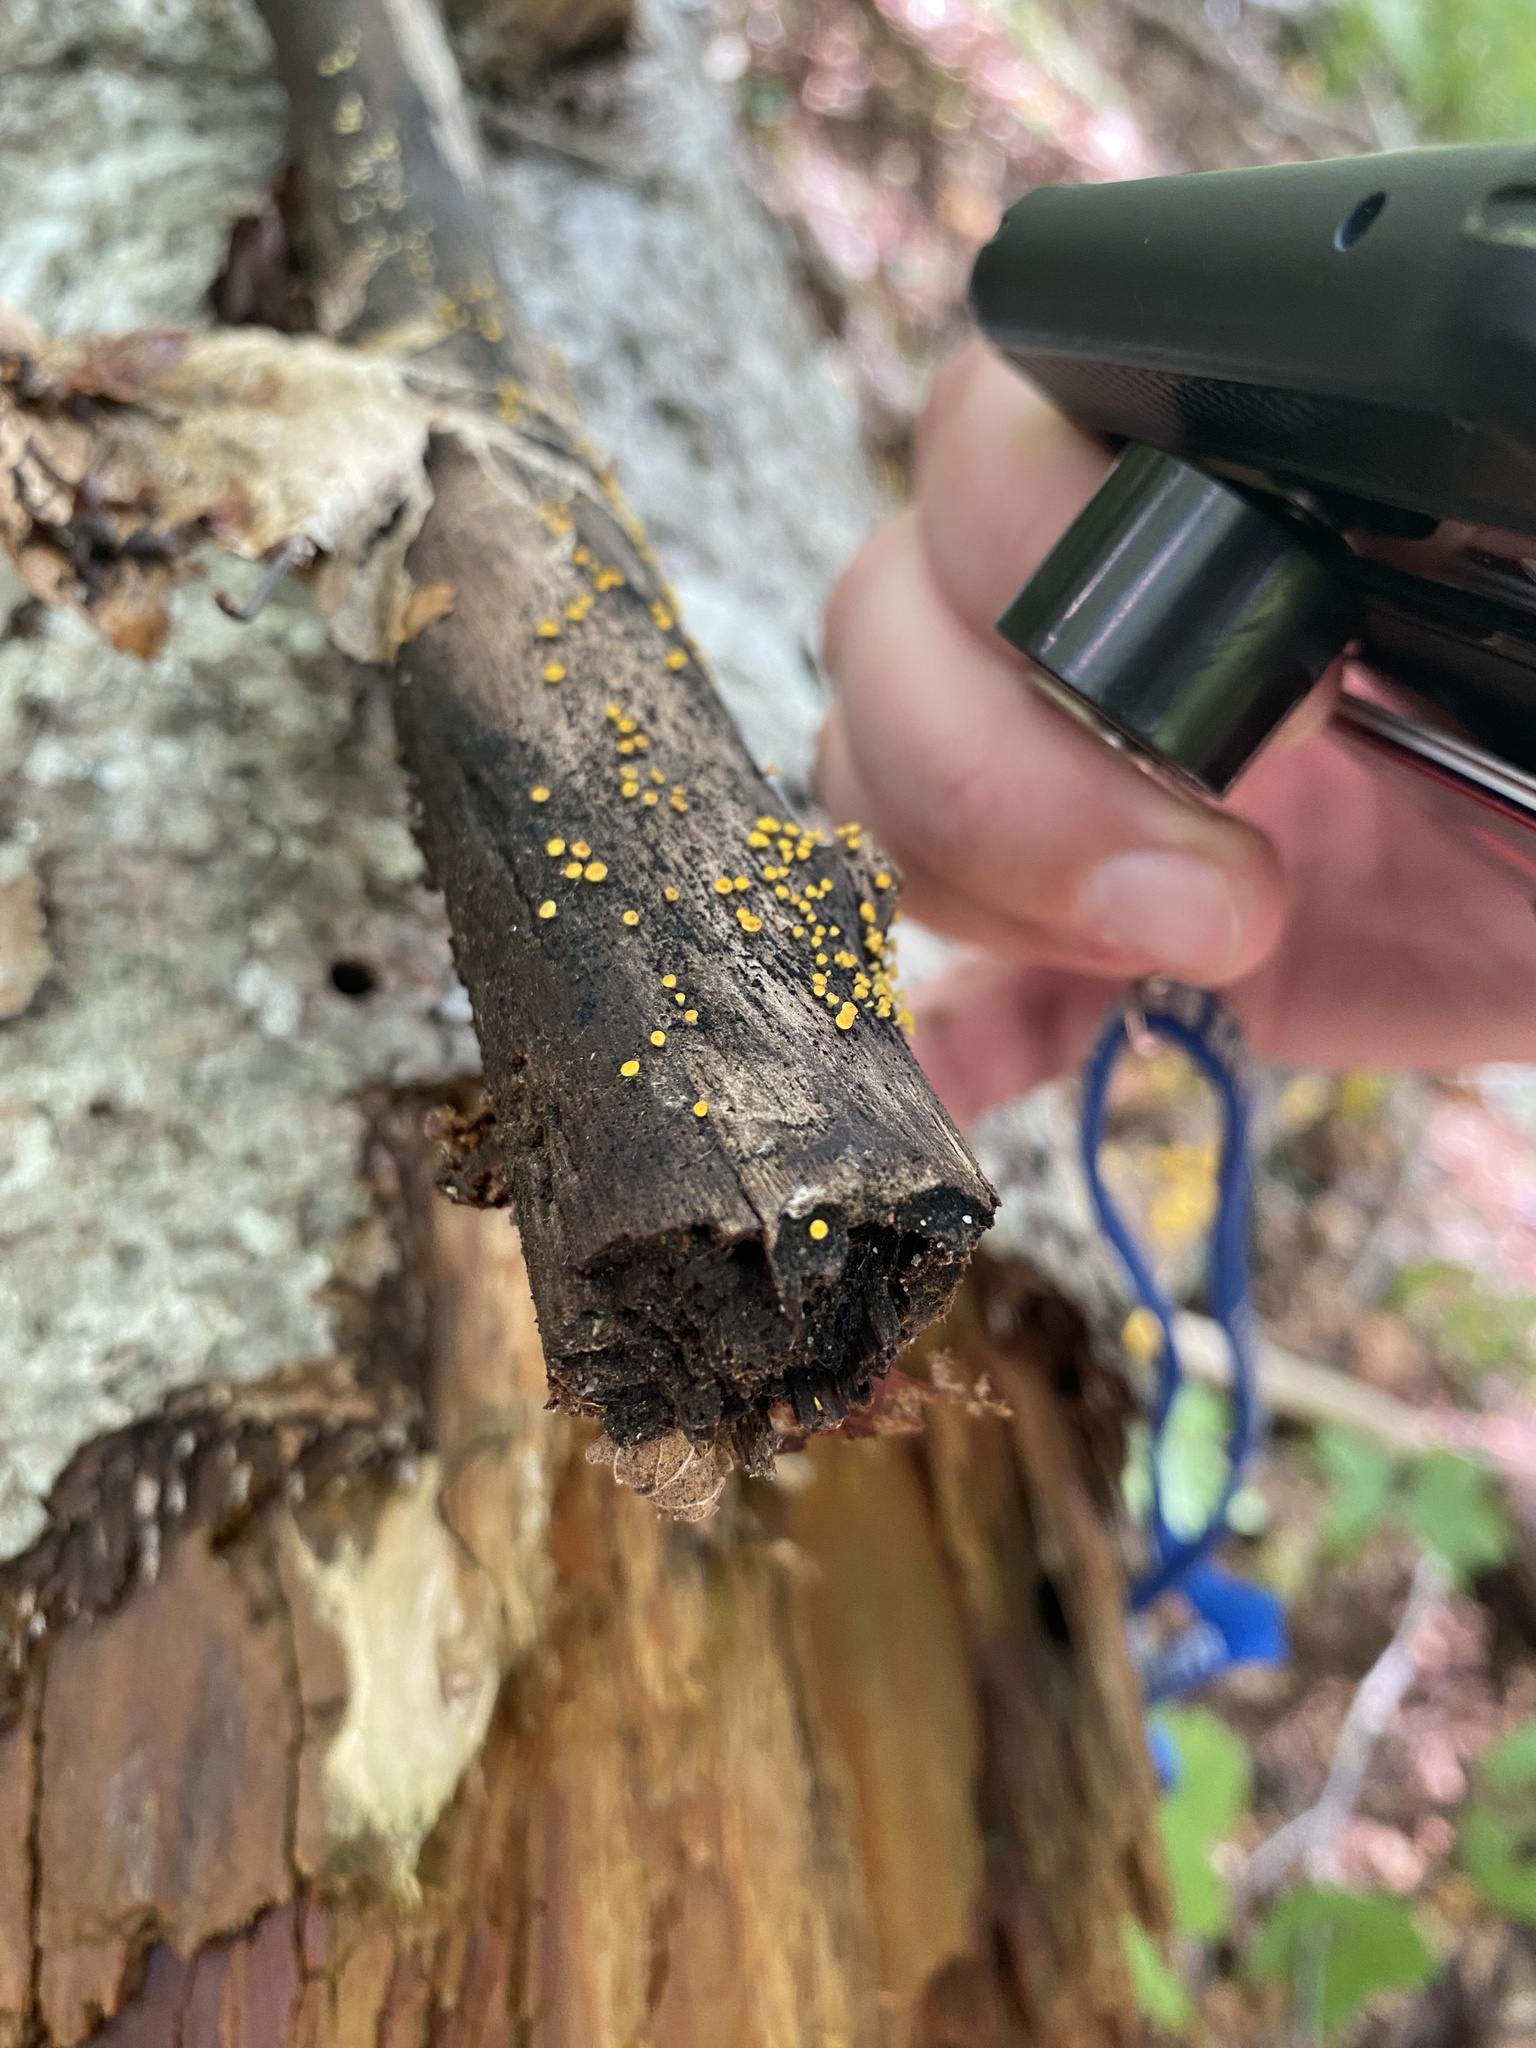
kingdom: Fungi
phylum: Ascomycota
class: Leotiomycetes
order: Helotiales
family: Pezizellaceae
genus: Calycina
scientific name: Calycina citrina
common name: Yellow fairy cups
